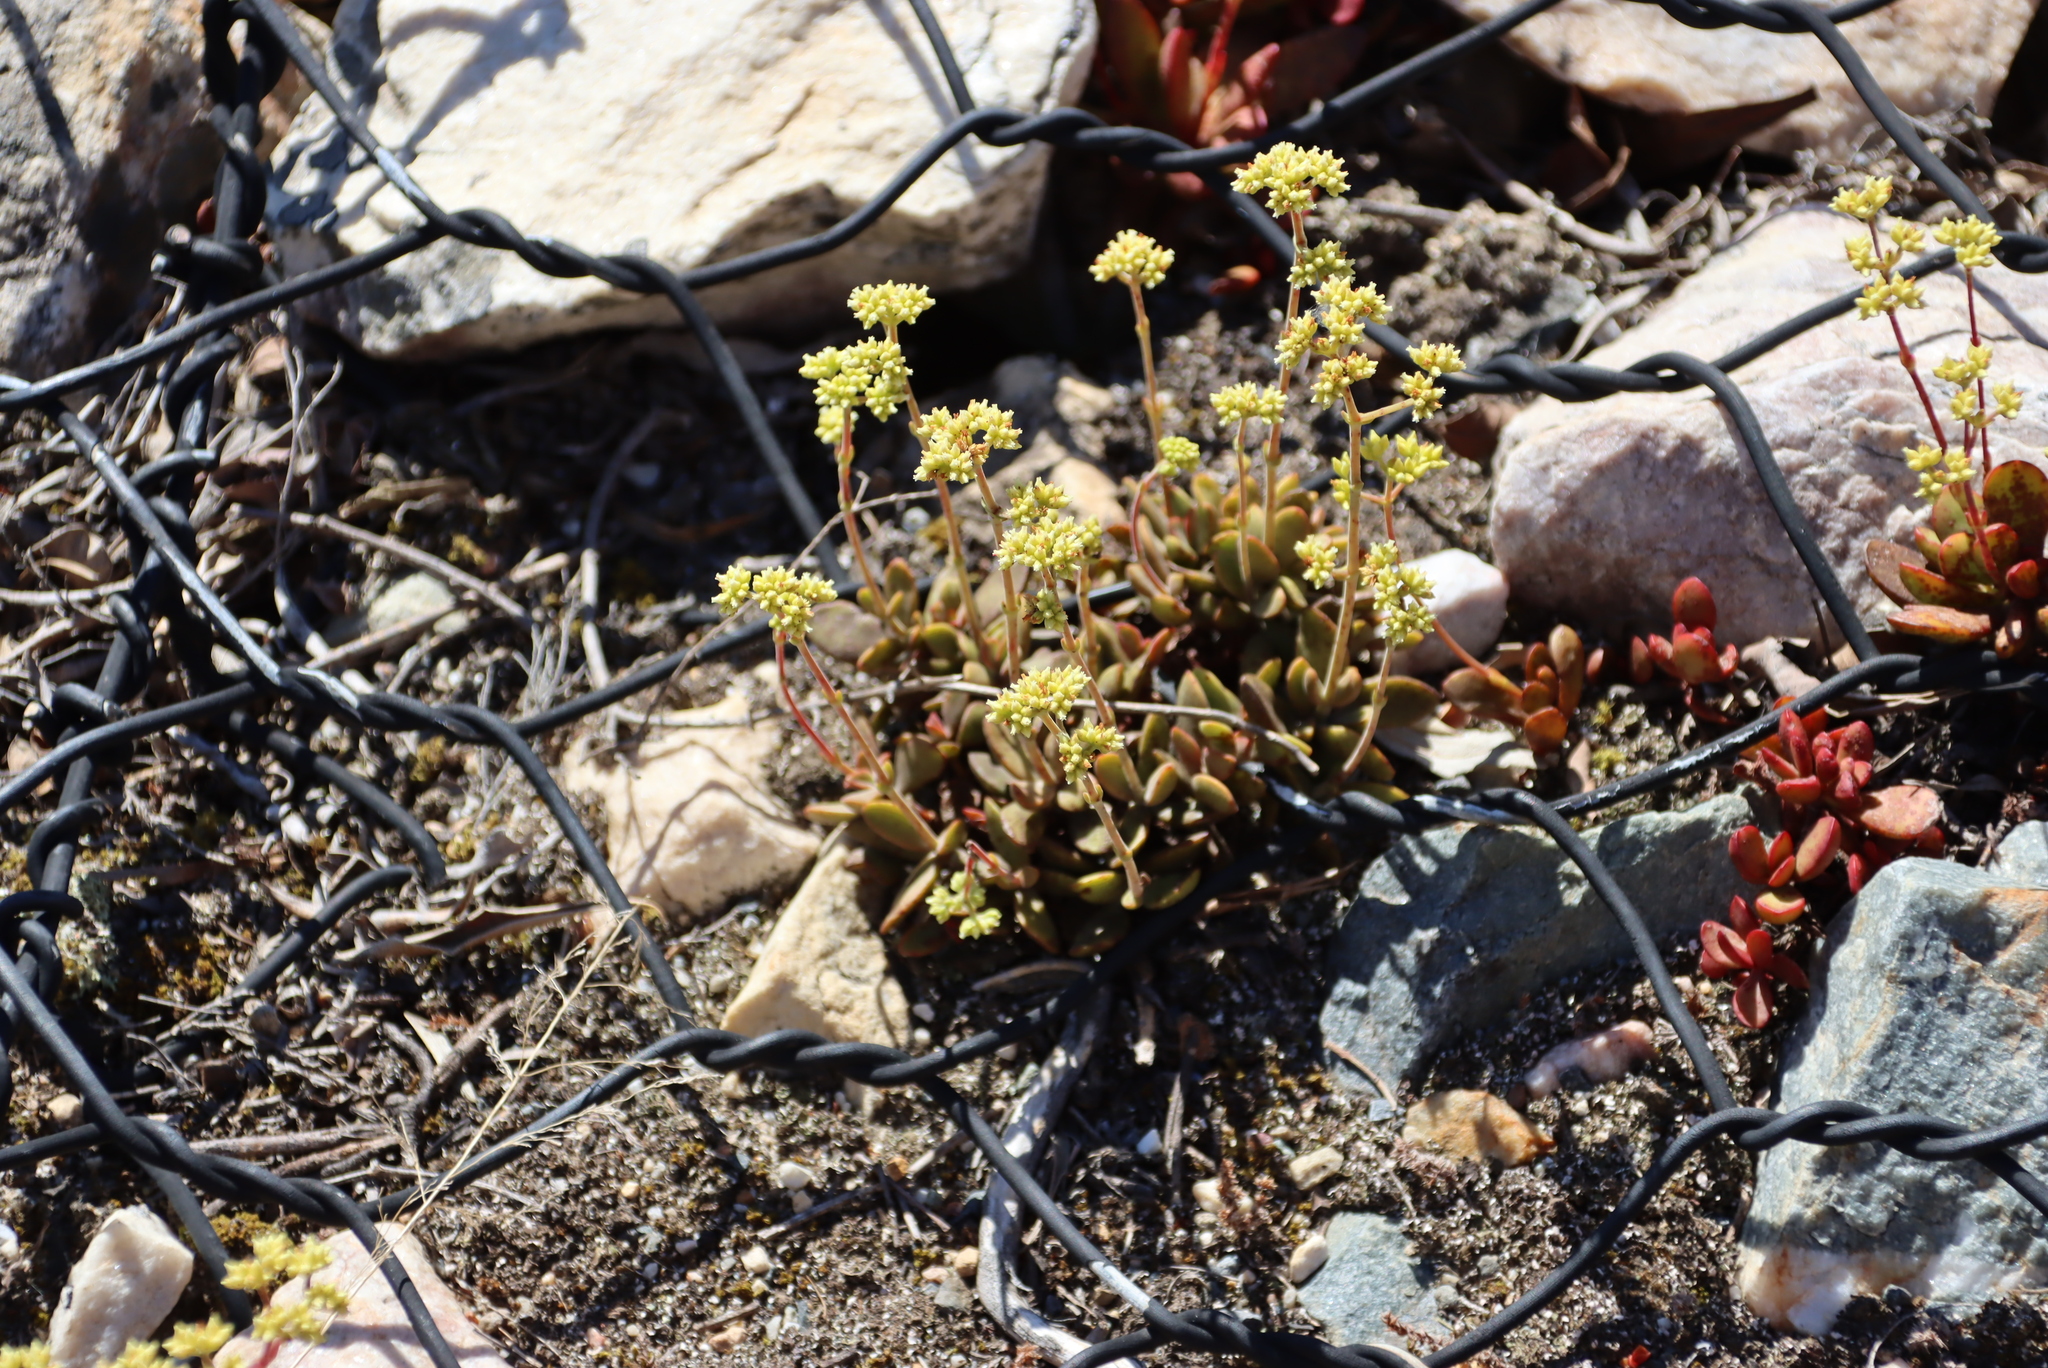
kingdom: Plantae
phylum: Tracheophyta
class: Magnoliopsida
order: Saxifragales
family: Crassulaceae
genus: Crassula
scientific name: Crassula atropurpurea
